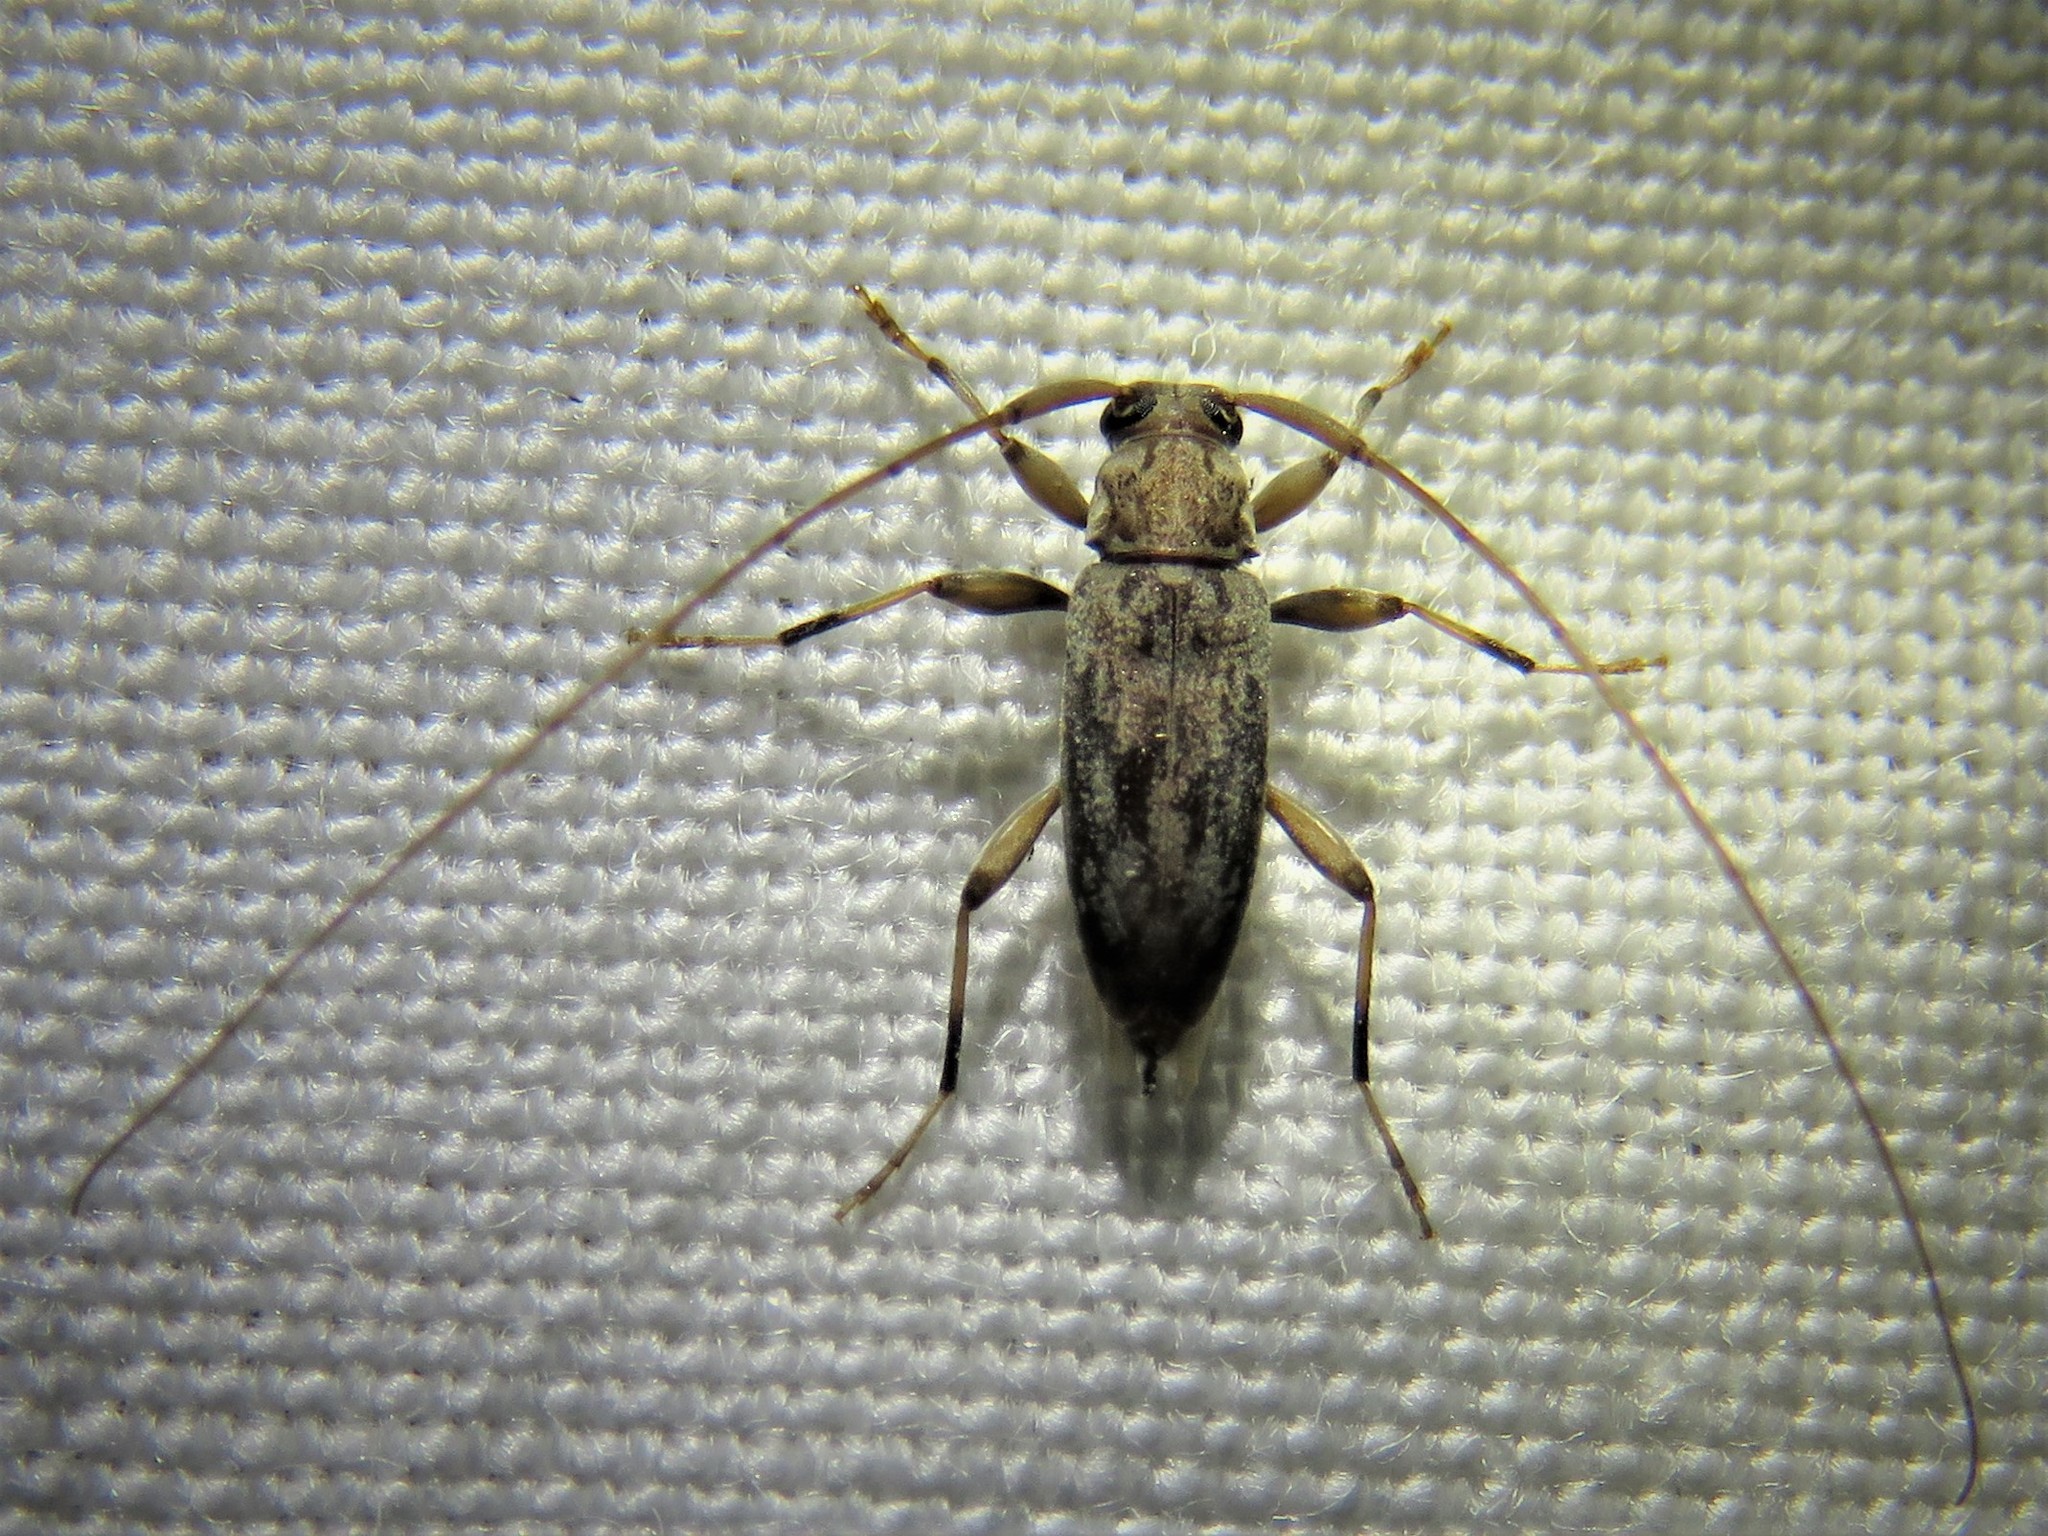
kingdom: Animalia
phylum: Arthropoda
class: Insecta
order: Coleoptera
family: Cerambycidae
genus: Lepturges
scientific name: Lepturges angulatus
